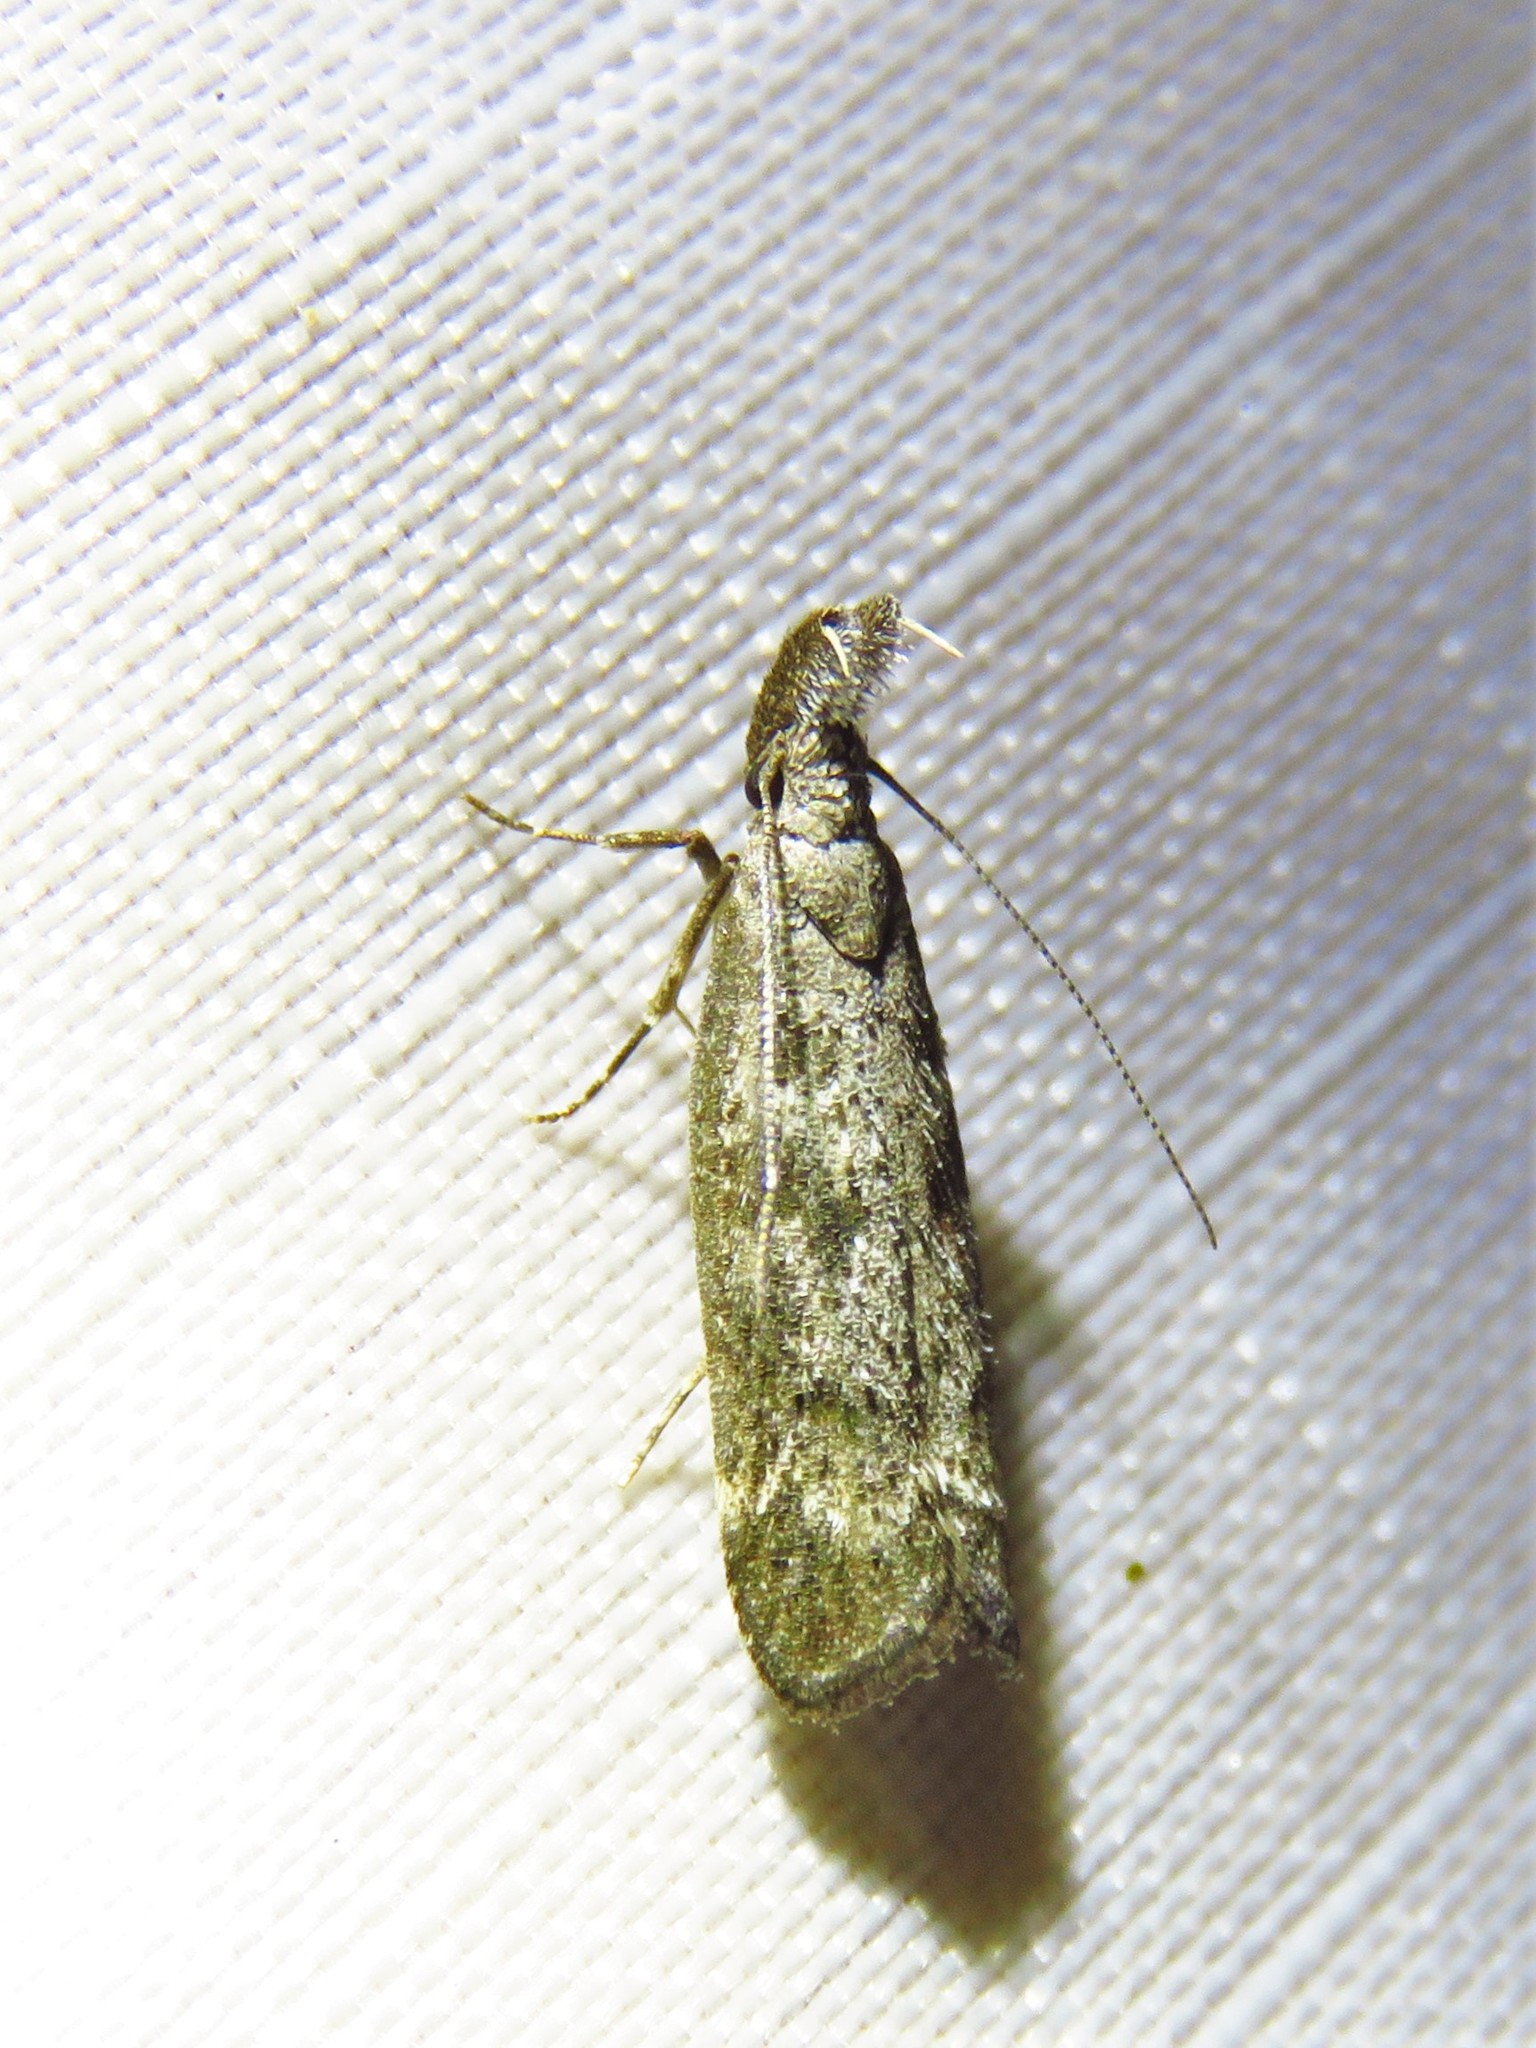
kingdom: Animalia
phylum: Arthropoda
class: Insecta
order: Lepidoptera
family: Gelechiidae
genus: Dichomeris
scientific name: Dichomeris inversella
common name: Inverse dichomeris moth
